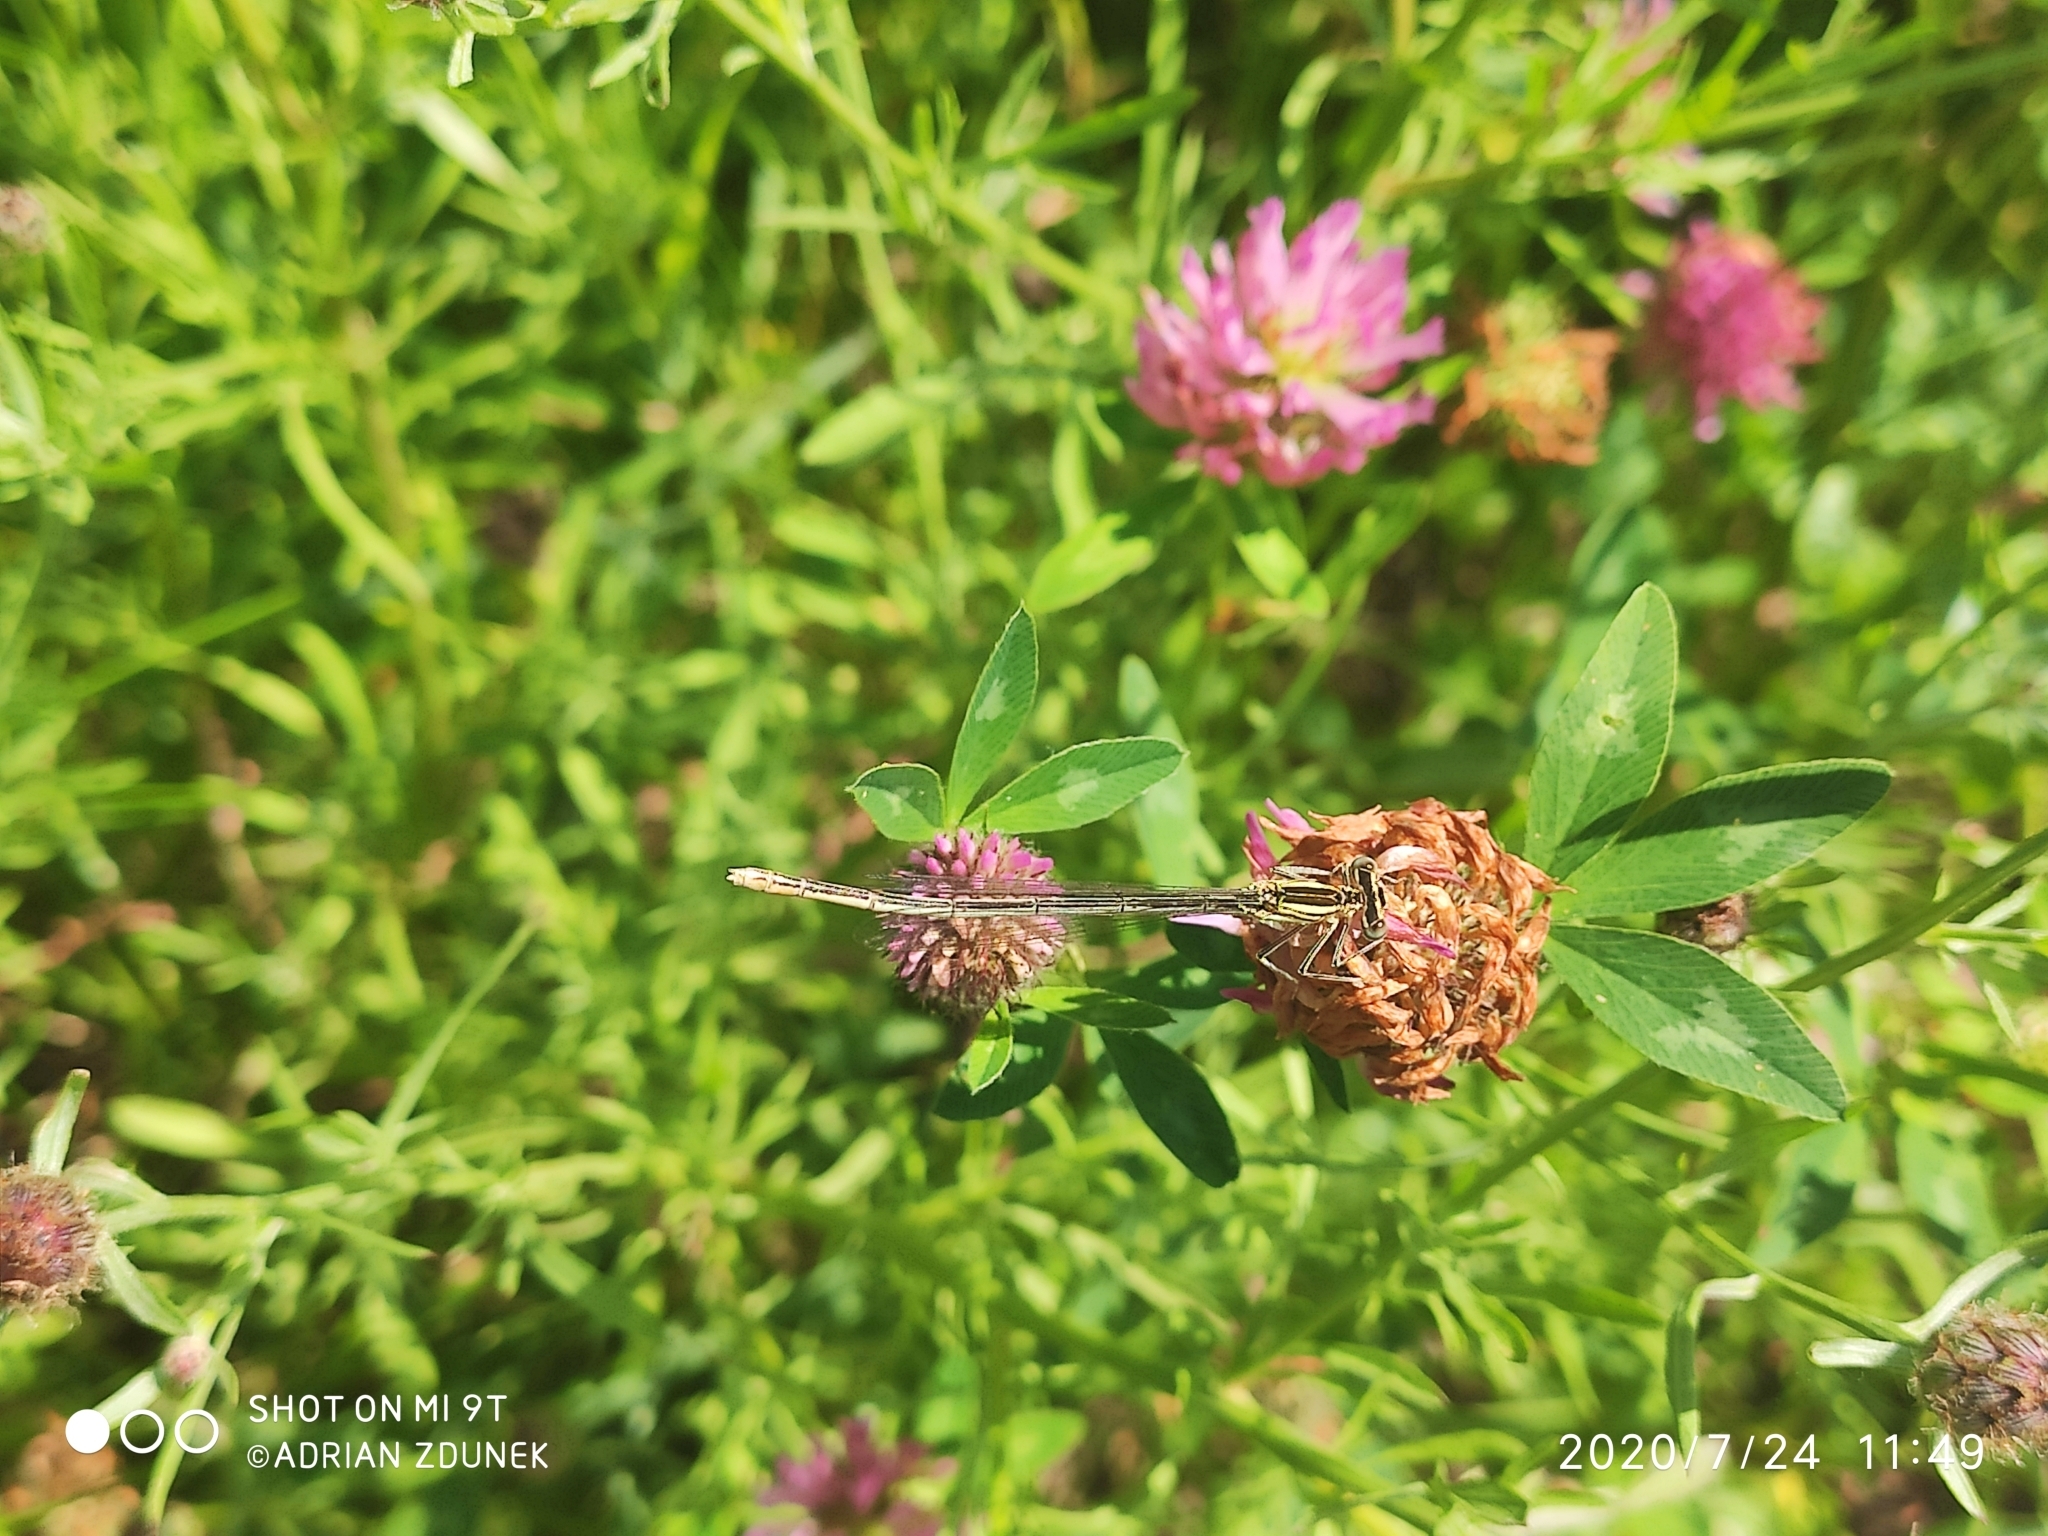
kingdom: Animalia
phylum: Arthropoda
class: Insecta
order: Odonata
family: Platycnemididae
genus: Platycnemis
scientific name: Platycnemis pennipes
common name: White-legged damselfly
